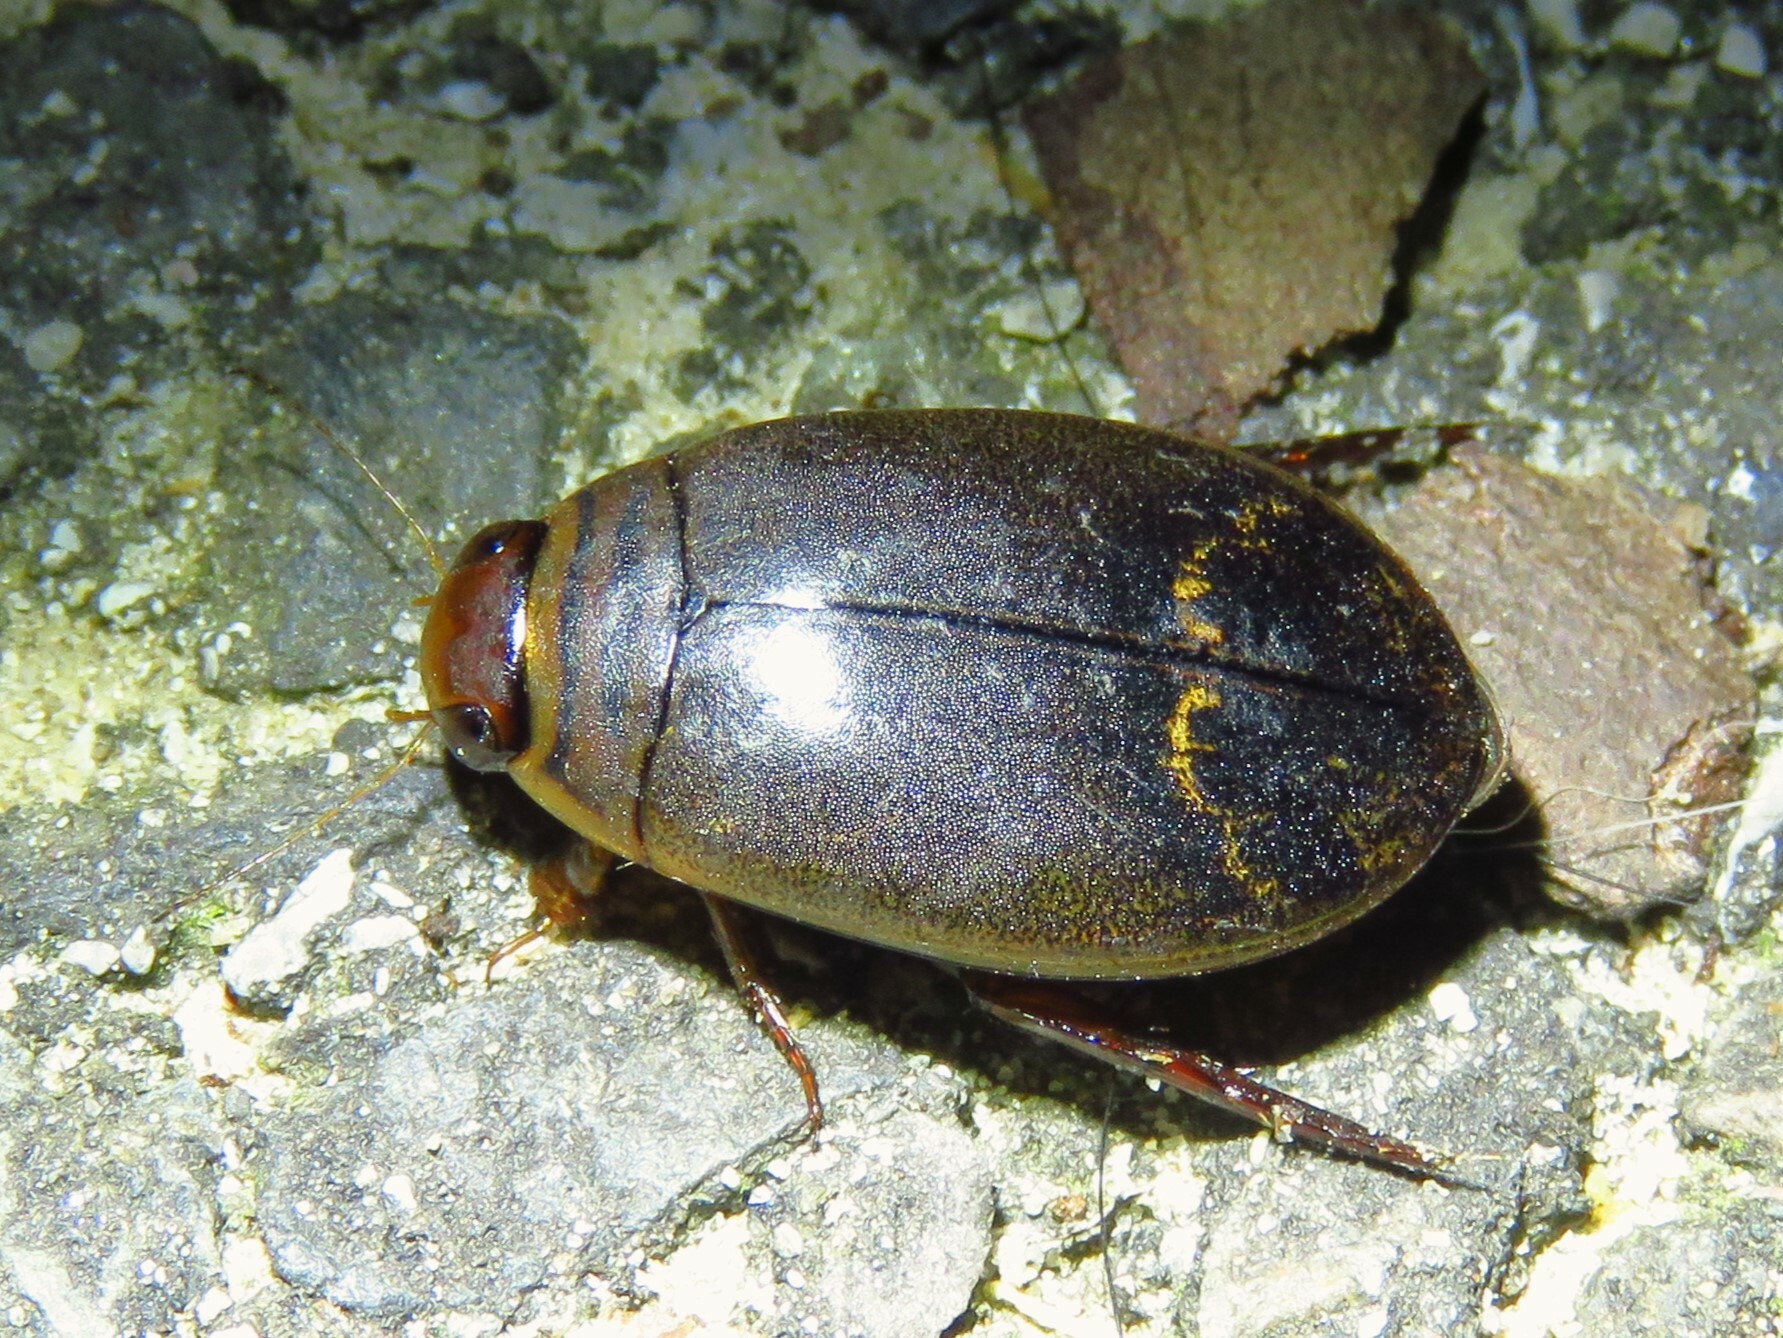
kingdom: Animalia
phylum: Arthropoda
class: Insecta
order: Coleoptera
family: Dytiscidae
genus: Acilius
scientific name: Acilius fraternus
